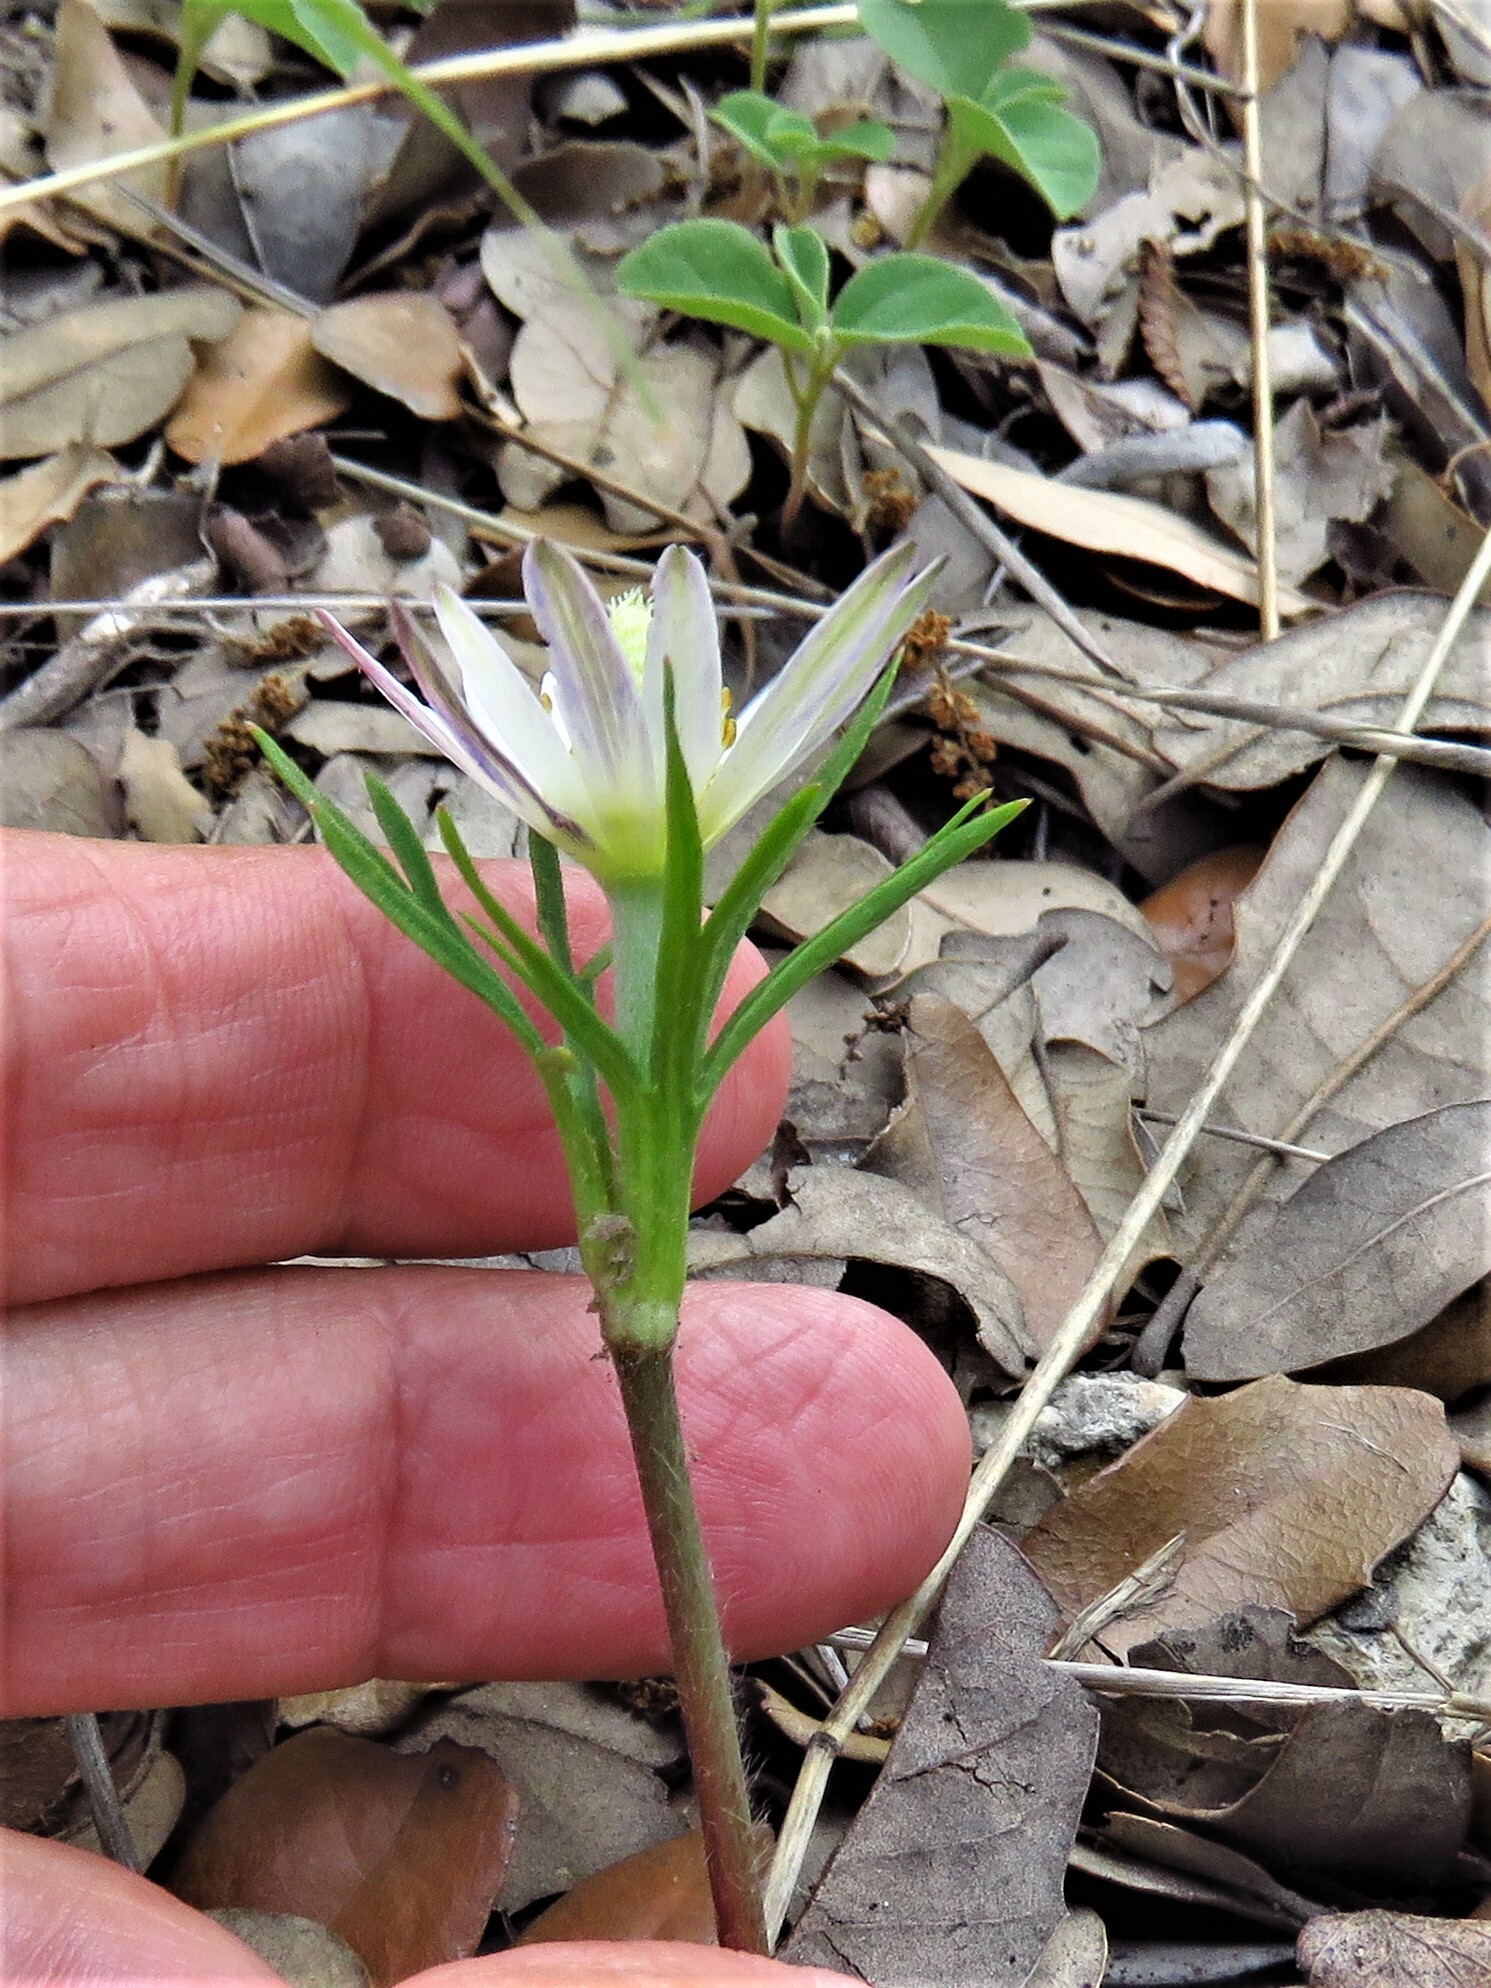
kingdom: Plantae
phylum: Tracheophyta
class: Magnoliopsida
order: Ranunculales
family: Ranunculaceae
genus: Anemone
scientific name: Anemone berlandieri
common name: Ten-petal anemone
